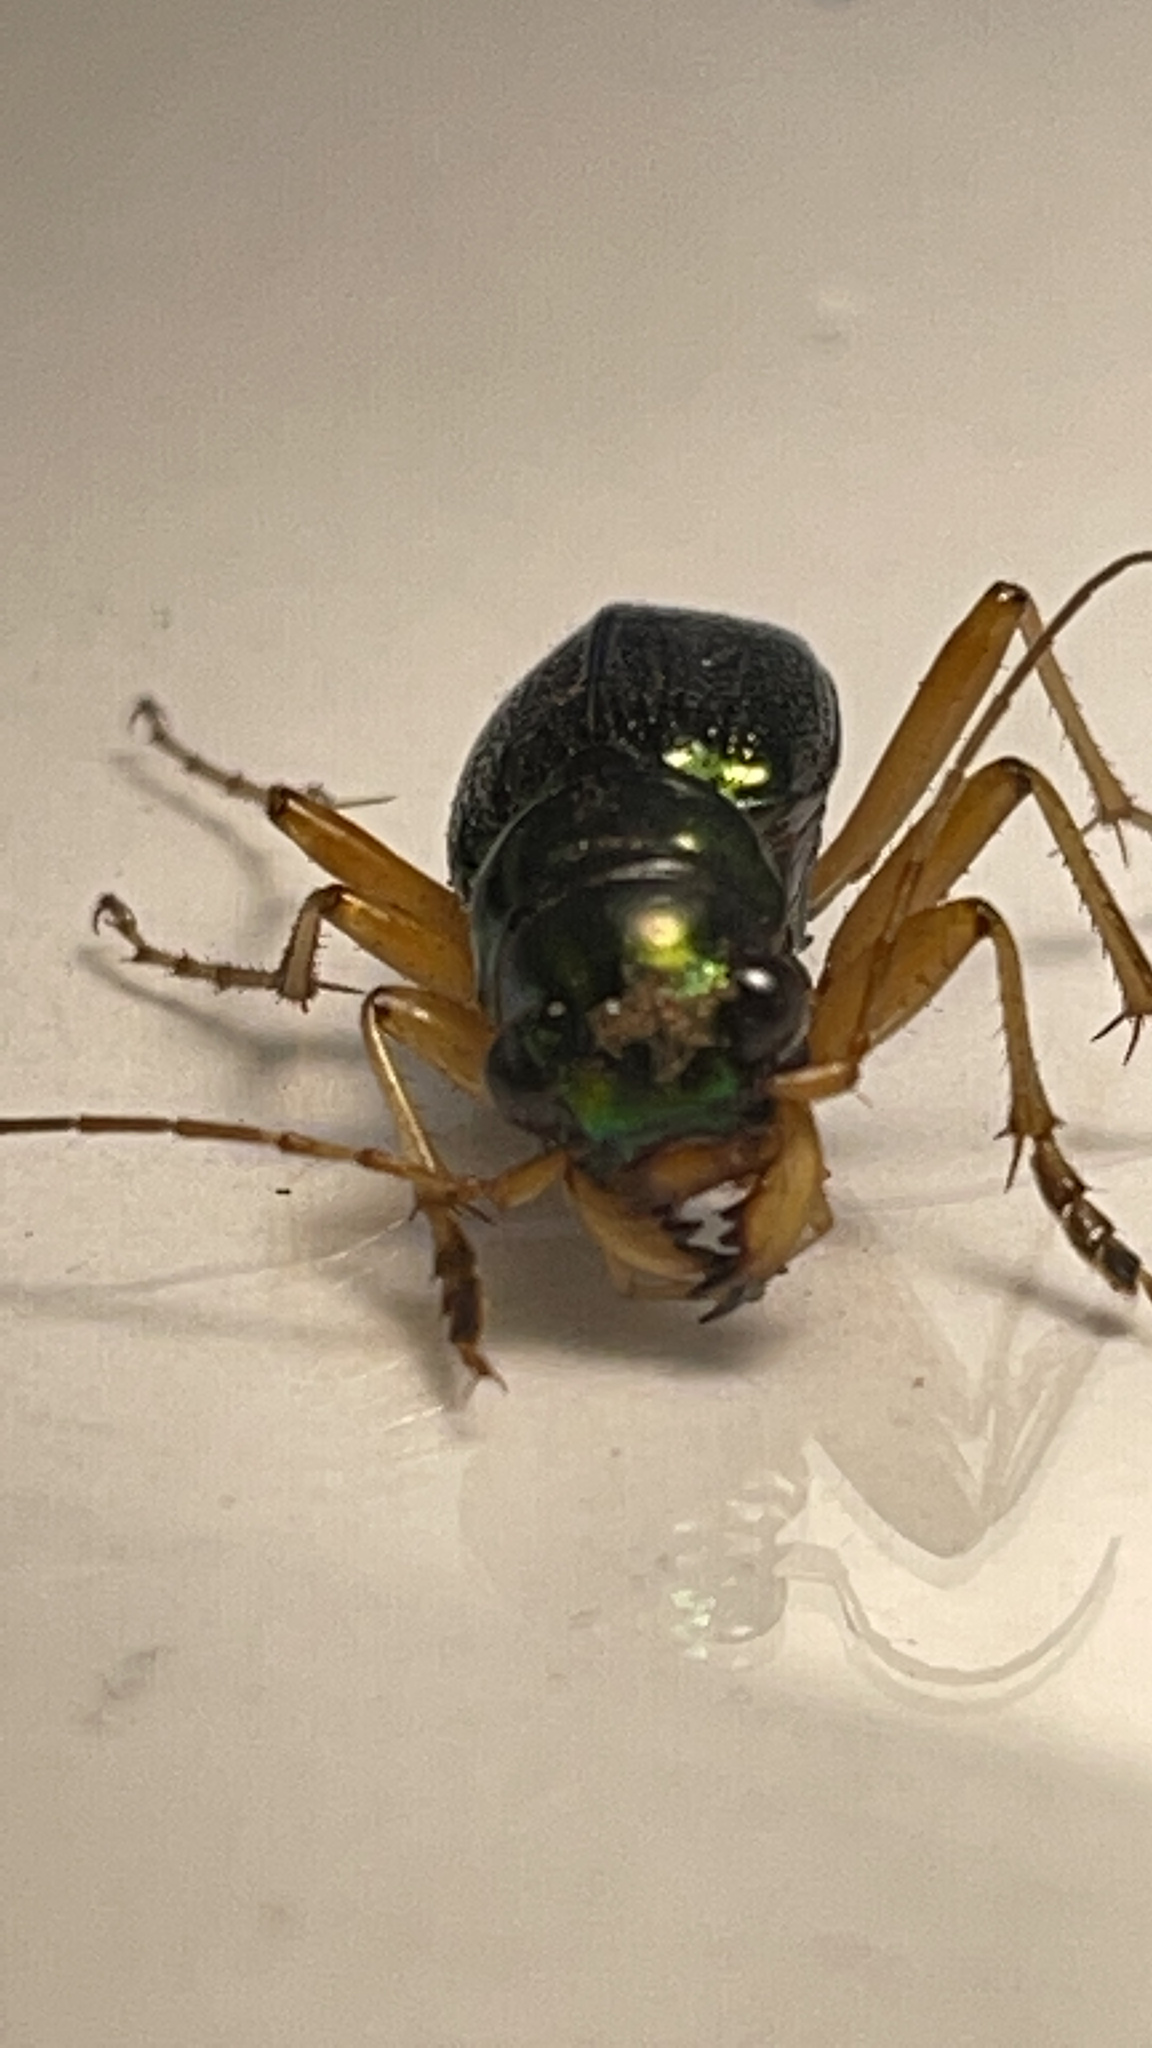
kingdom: Animalia
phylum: Arthropoda
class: Insecta
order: Coleoptera
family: Carabidae
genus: Tetracha
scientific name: Tetracha virginica
